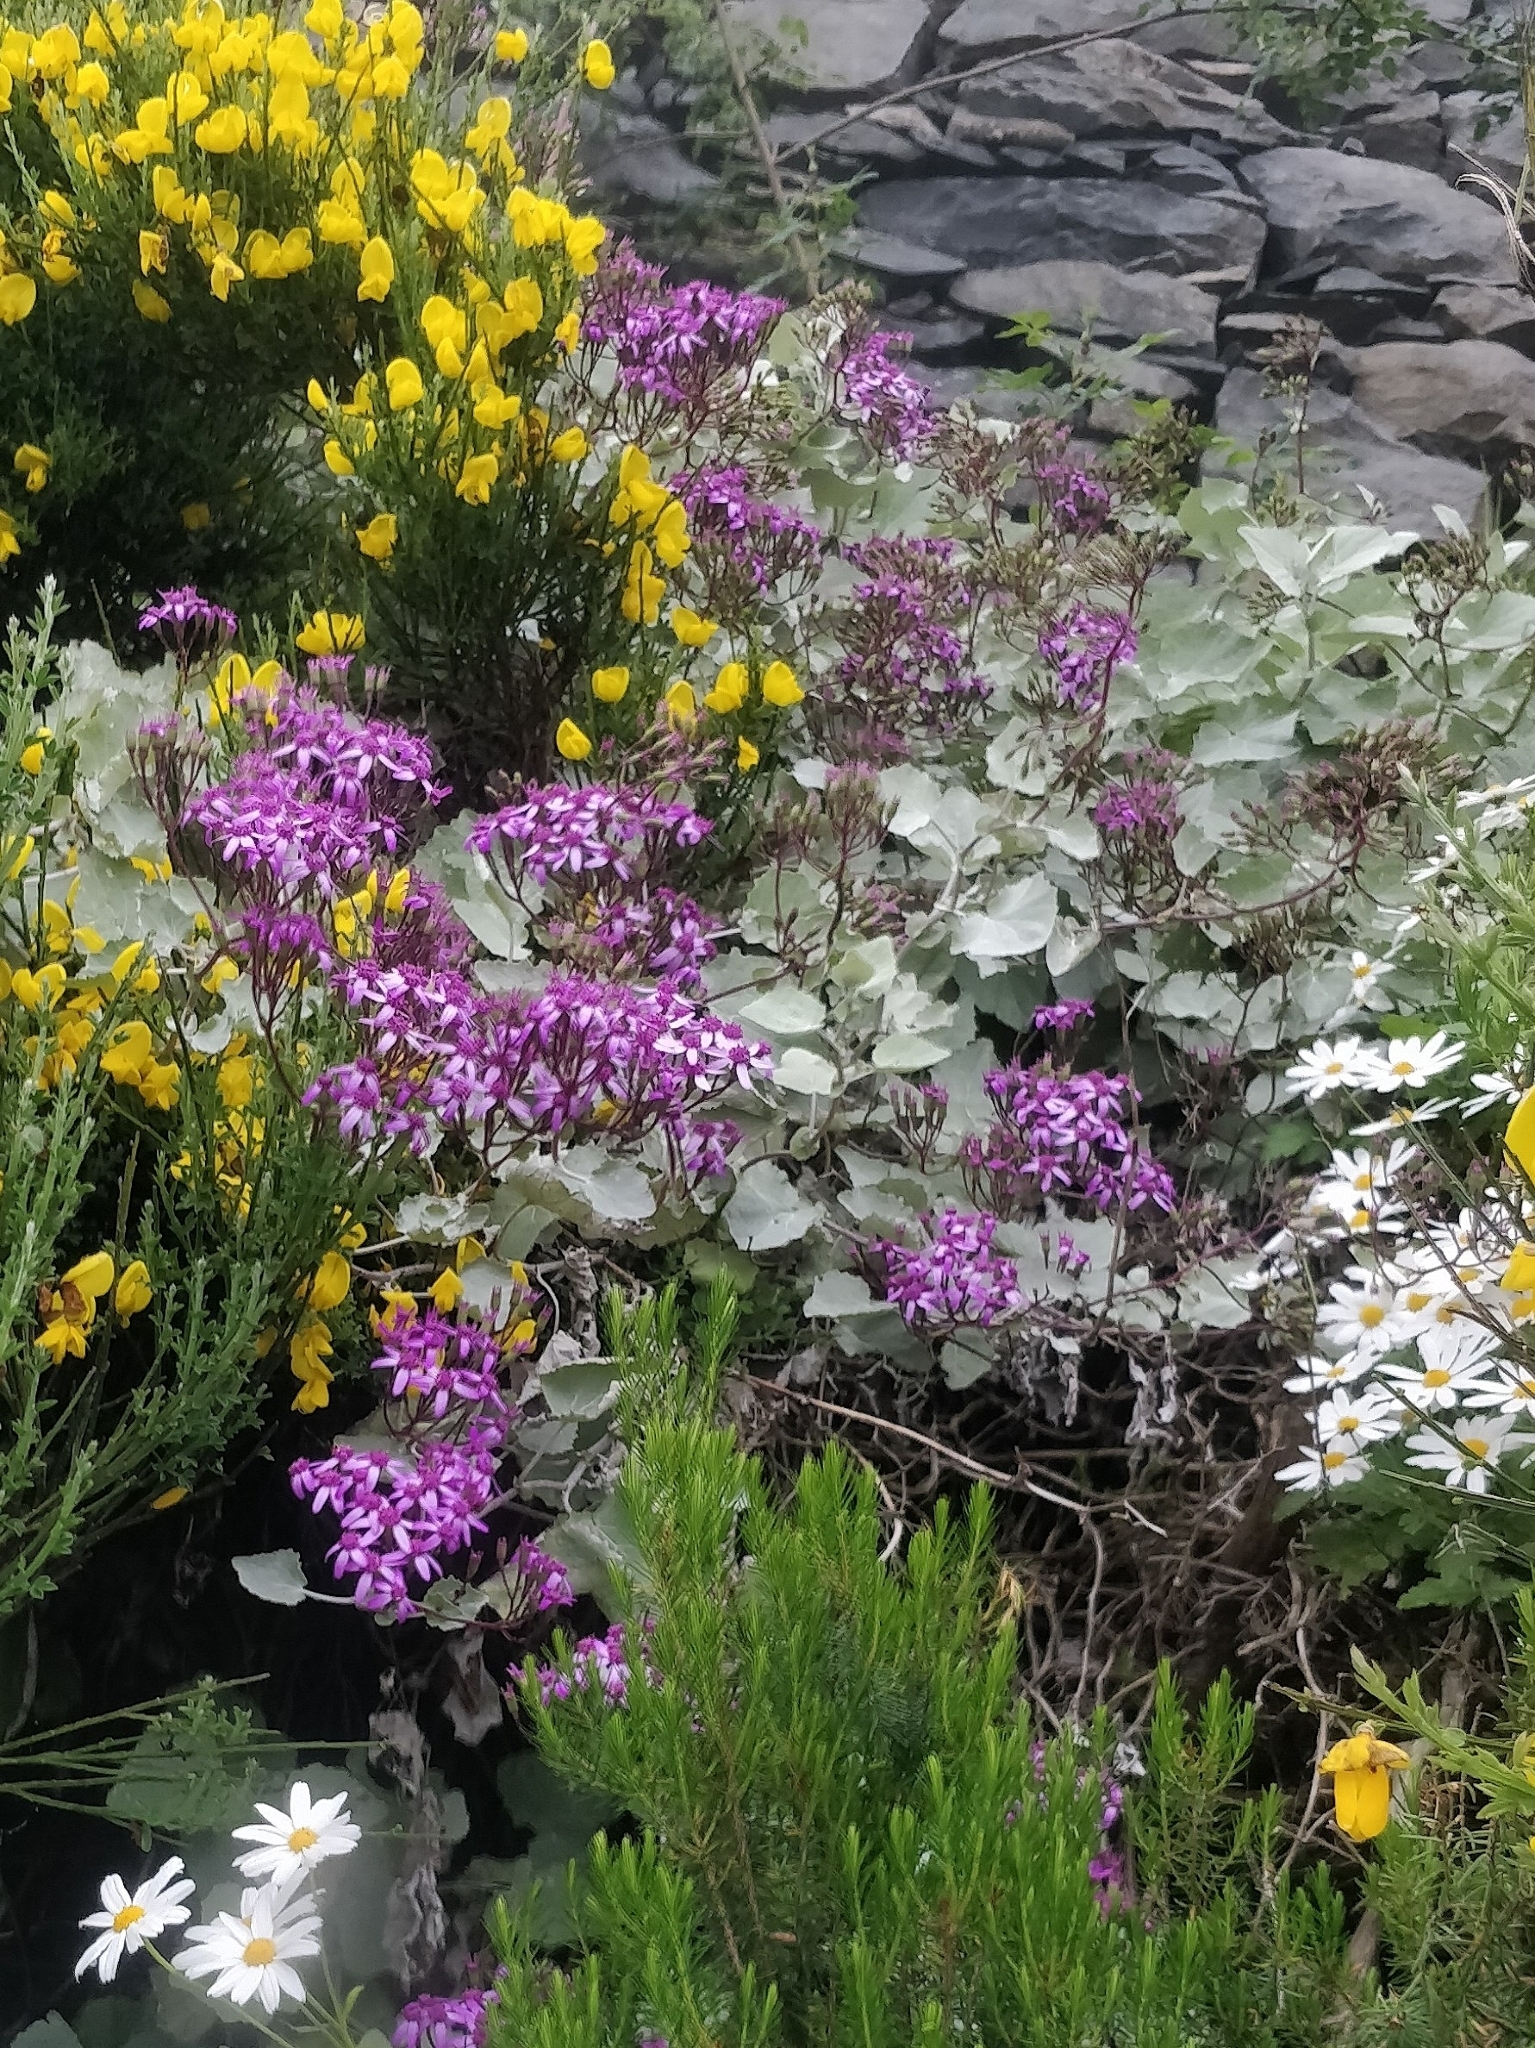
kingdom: Plantae
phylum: Tracheophyta
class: Magnoliopsida
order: Asterales
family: Asteraceae
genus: Pericallis
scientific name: Pericallis aurita
